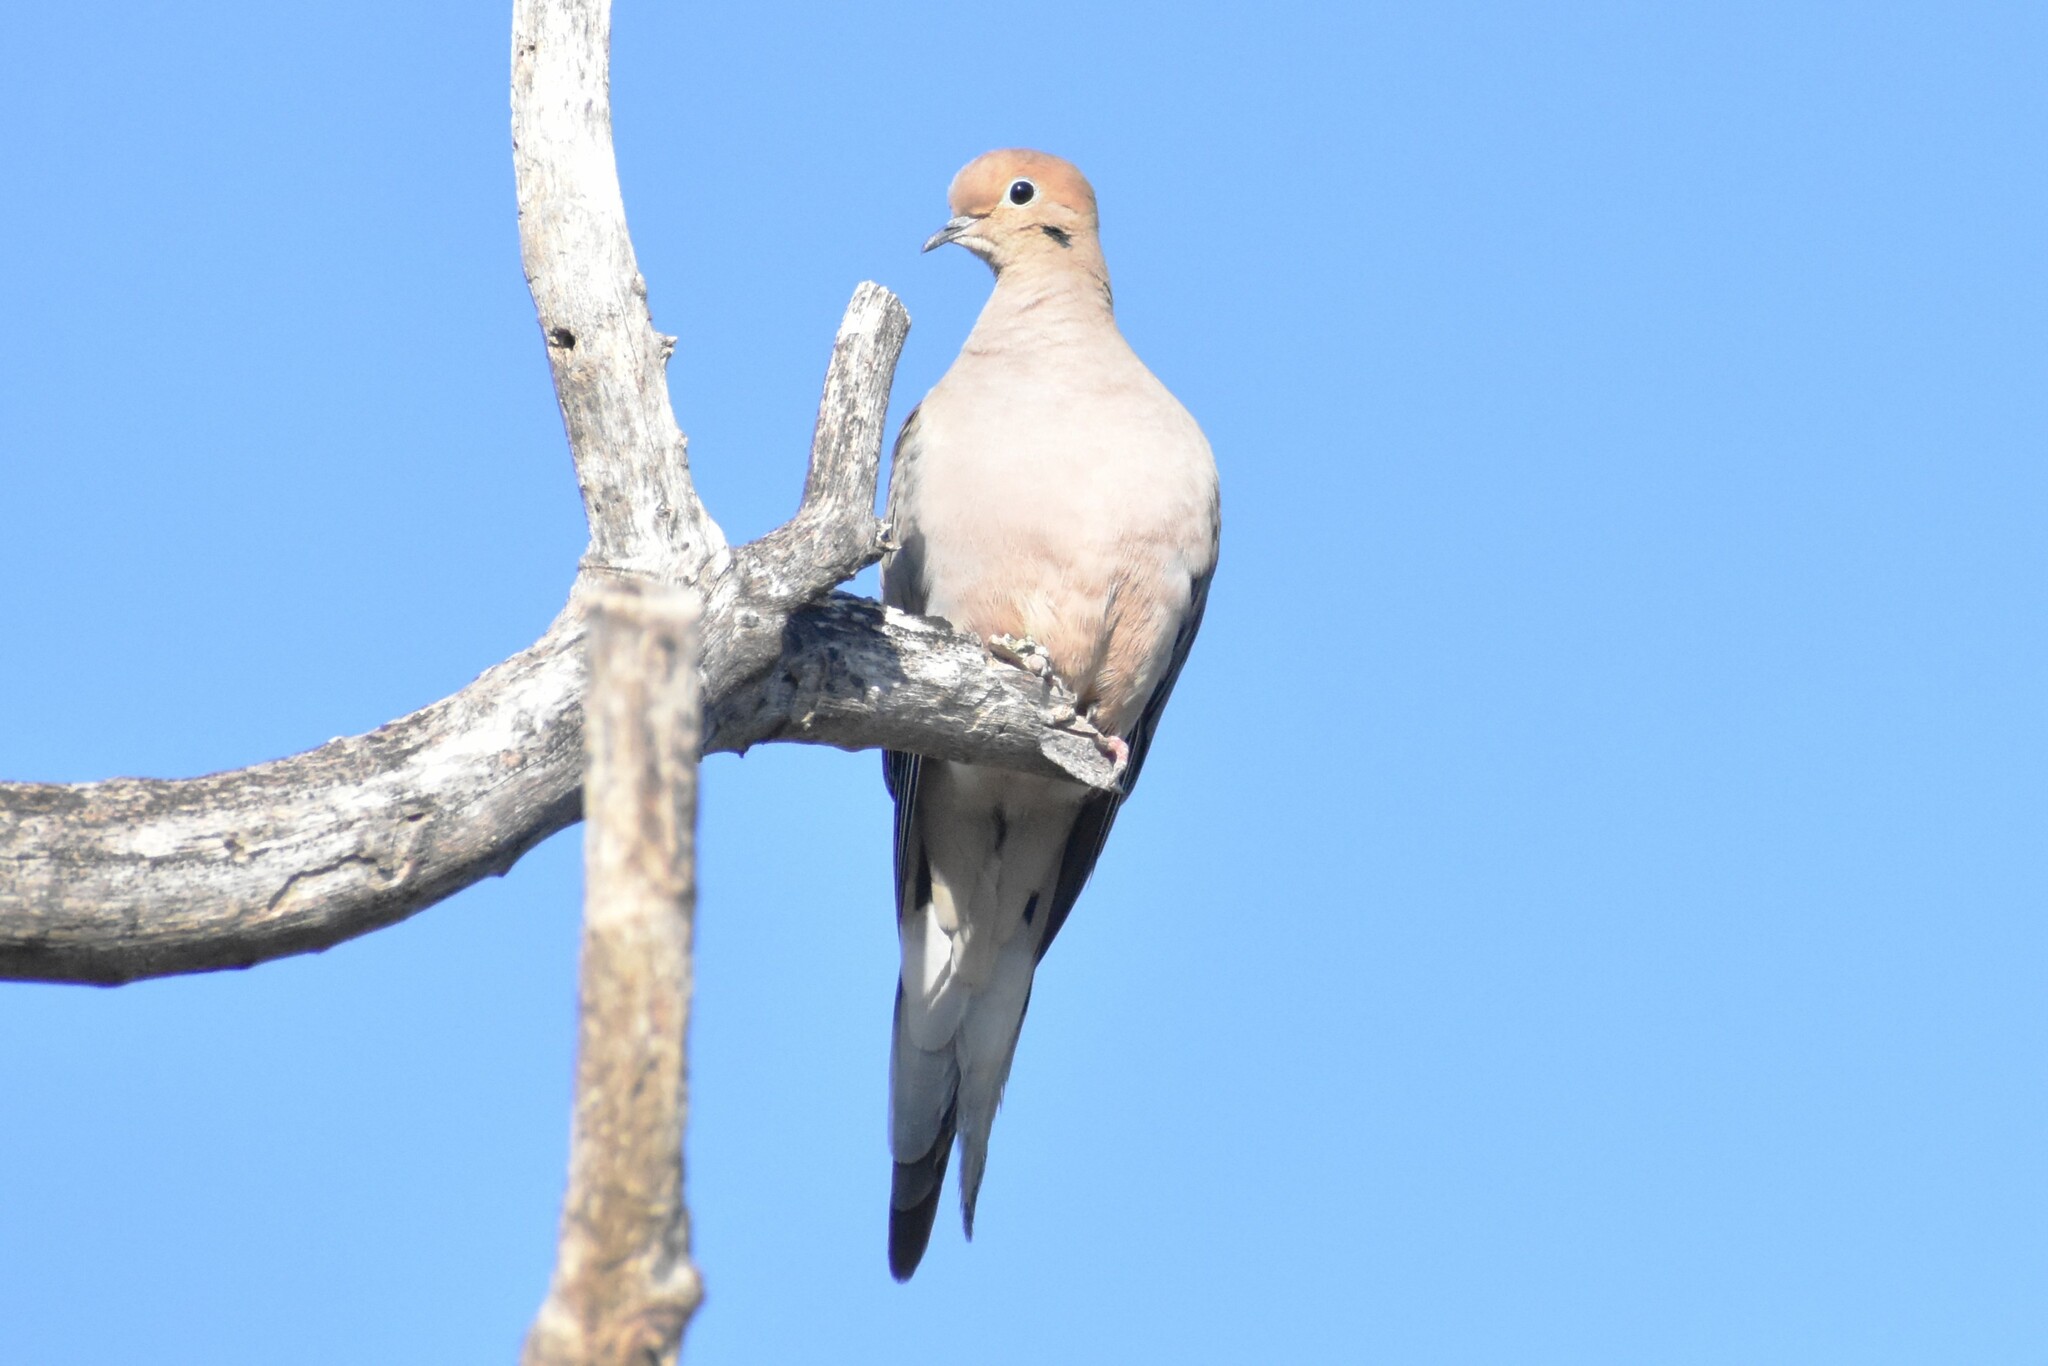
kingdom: Animalia
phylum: Chordata
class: Aves
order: Columbiformes
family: Columbidae
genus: Zenaida
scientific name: Zenaida macroura
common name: Mourning dove
